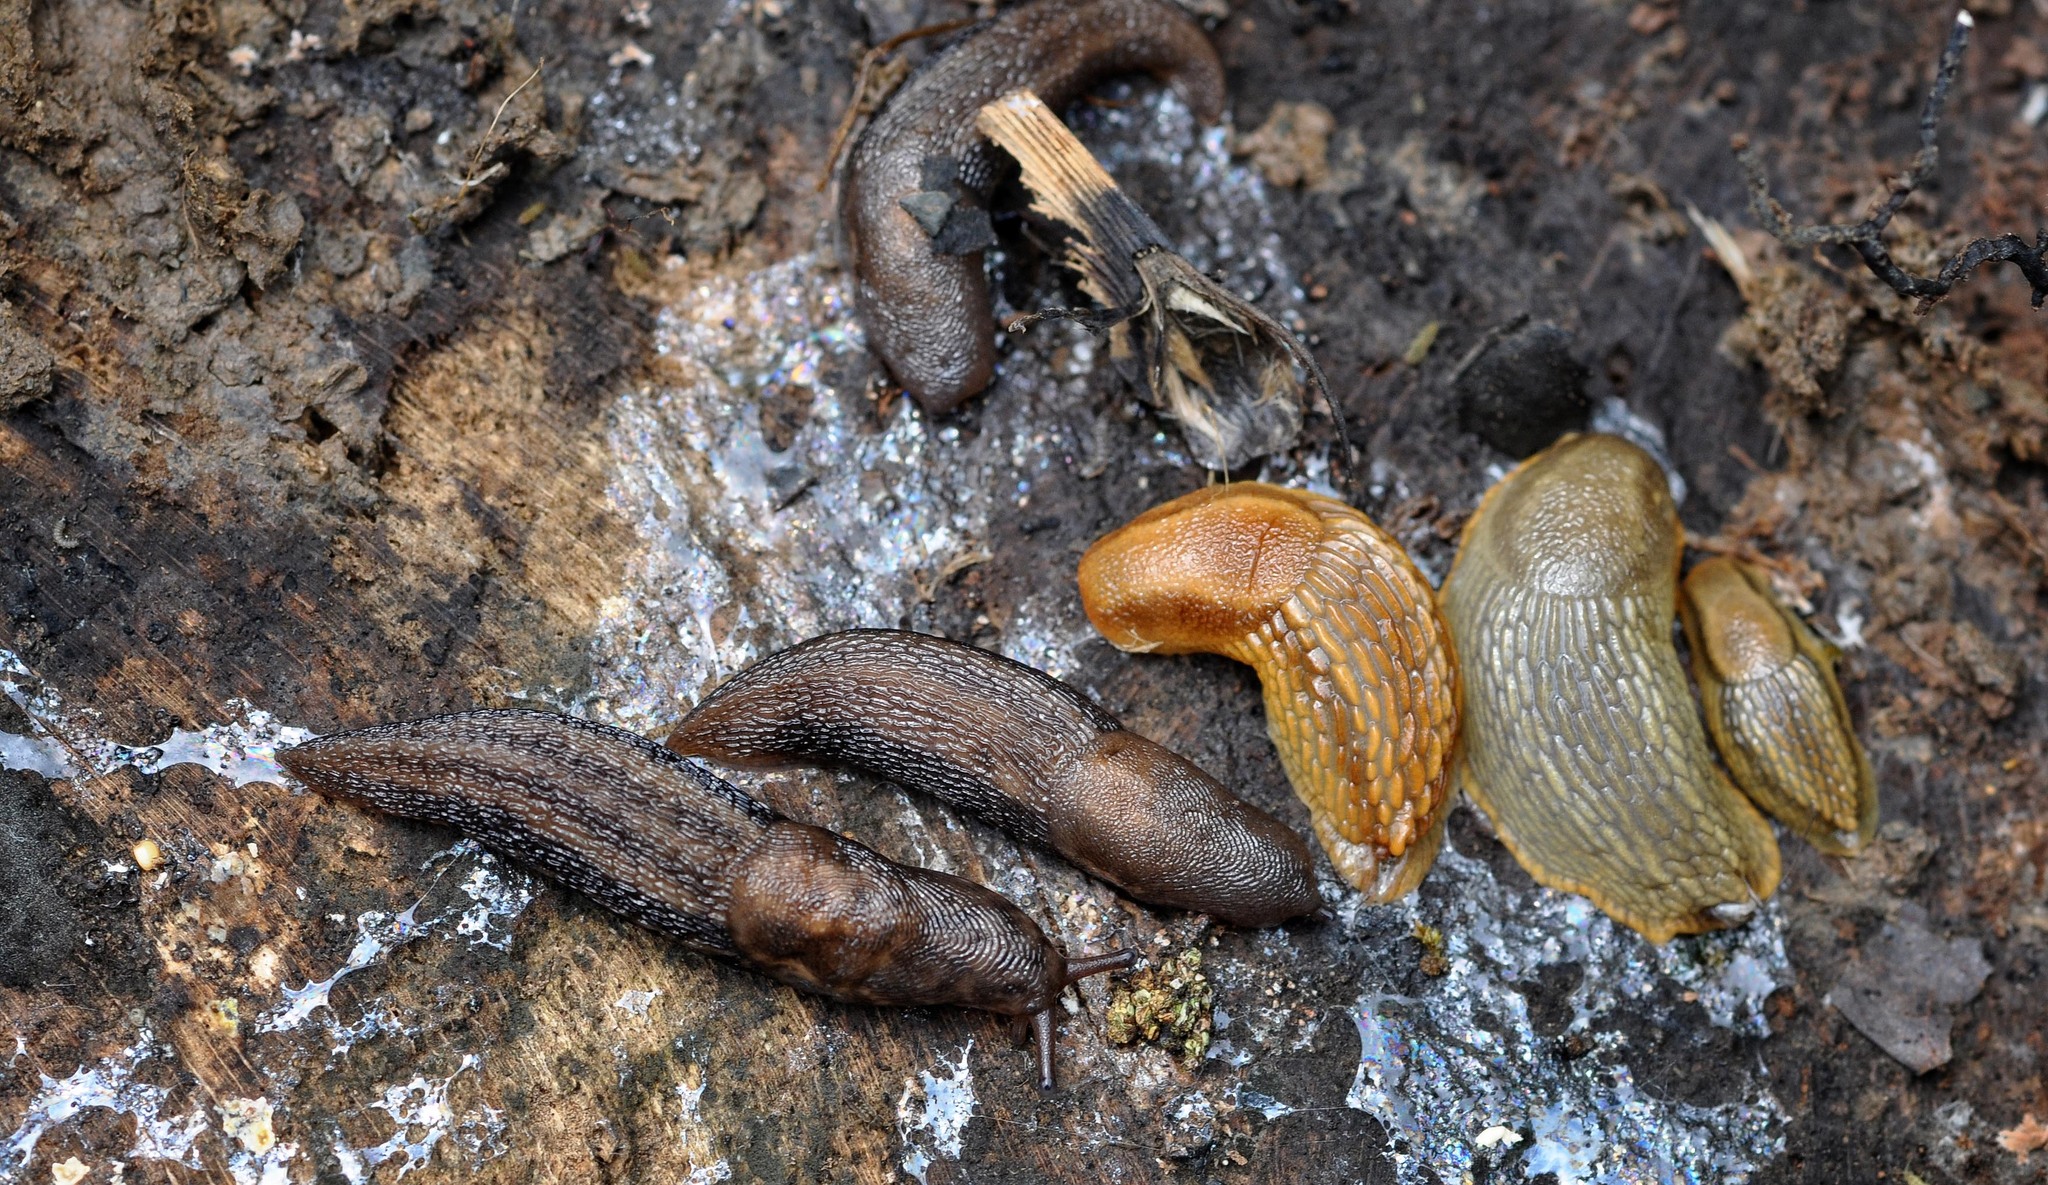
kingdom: Animalia
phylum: Mollusca
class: Gastropoda
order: Stylommatophora
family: Limacidae
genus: Limax
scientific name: Limax maximus
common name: Great grey slug
